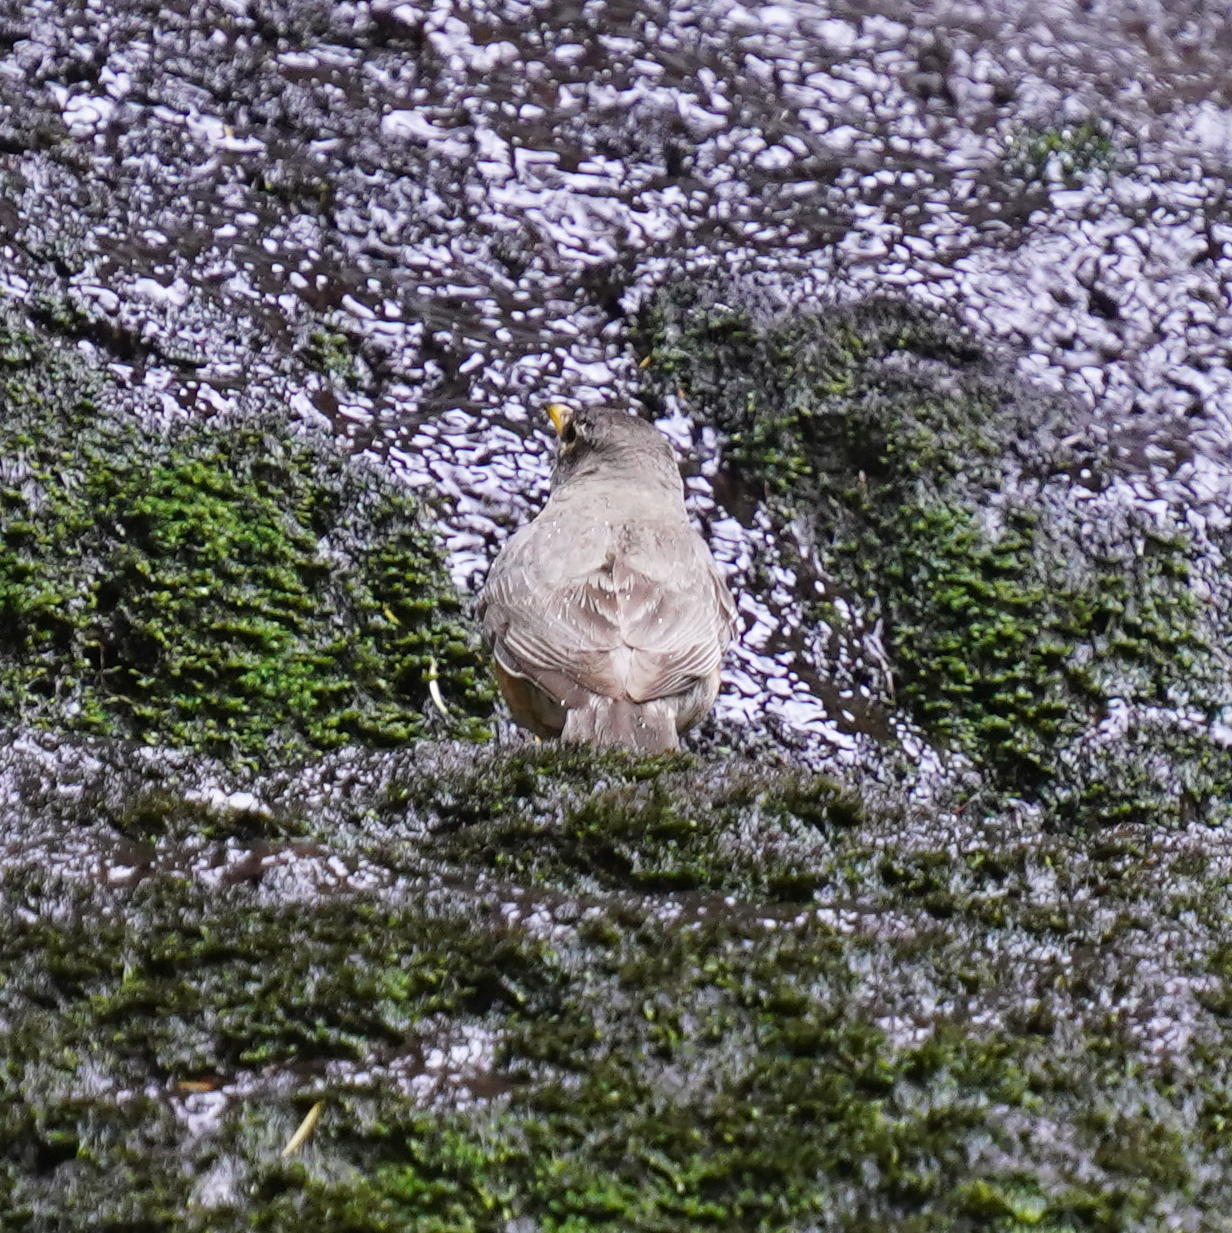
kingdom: Animalia
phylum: Chordata
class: Aves
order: Passeriformes
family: Turdidae
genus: Turdus
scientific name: Turdus migratorius
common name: American robin
